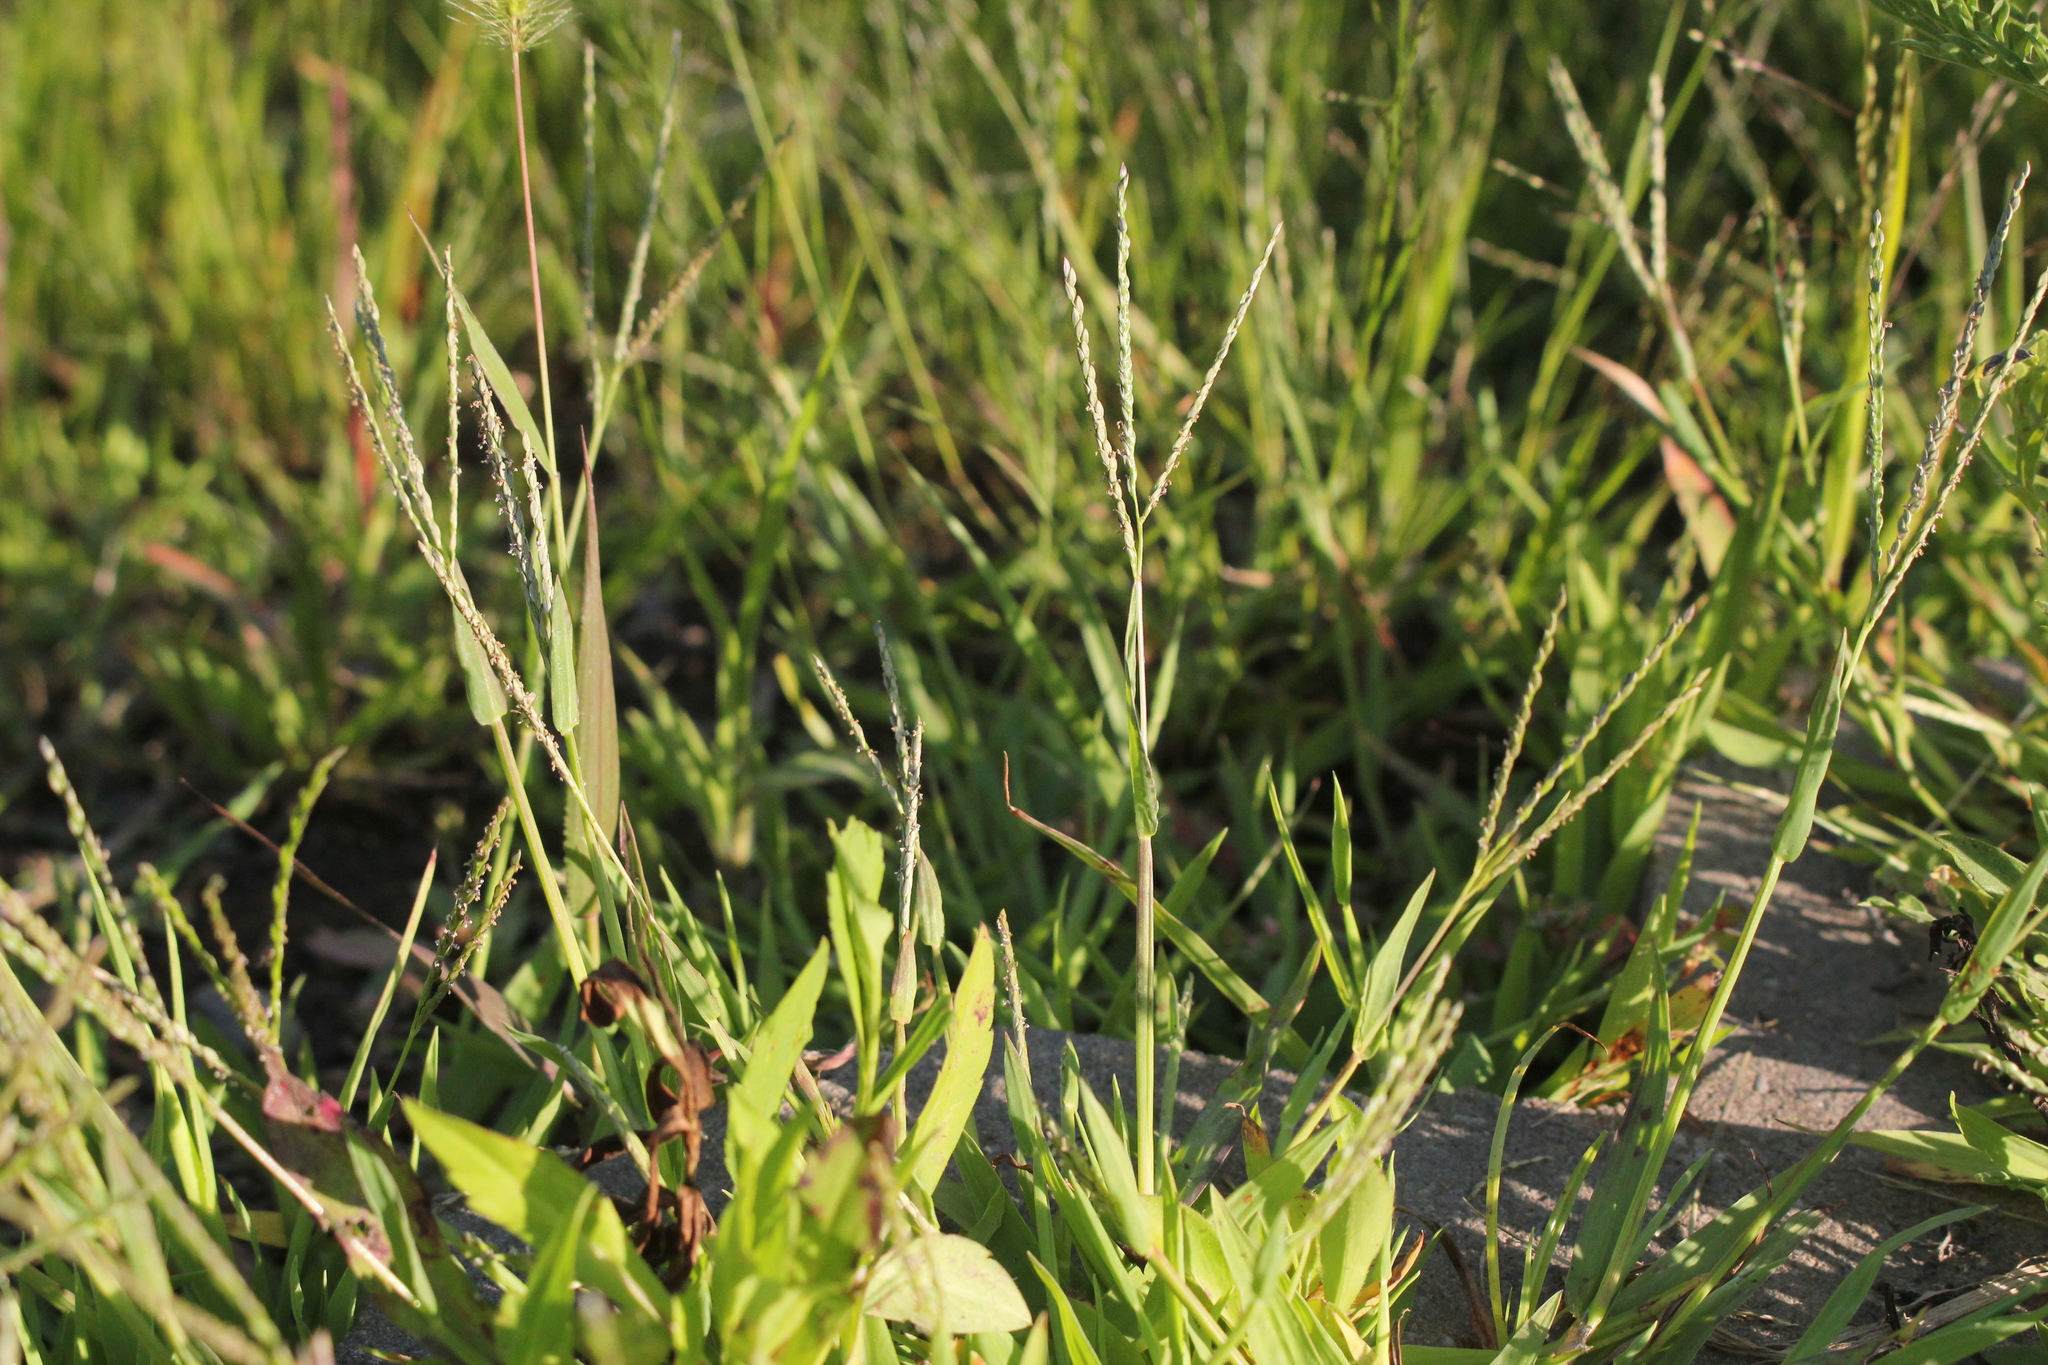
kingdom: Plantae
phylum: Tracheophyta
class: Liliopsida
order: Poales
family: Poaceae
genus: Digitaria
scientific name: Digitaria ischaemum
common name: Smooth crabgrass
